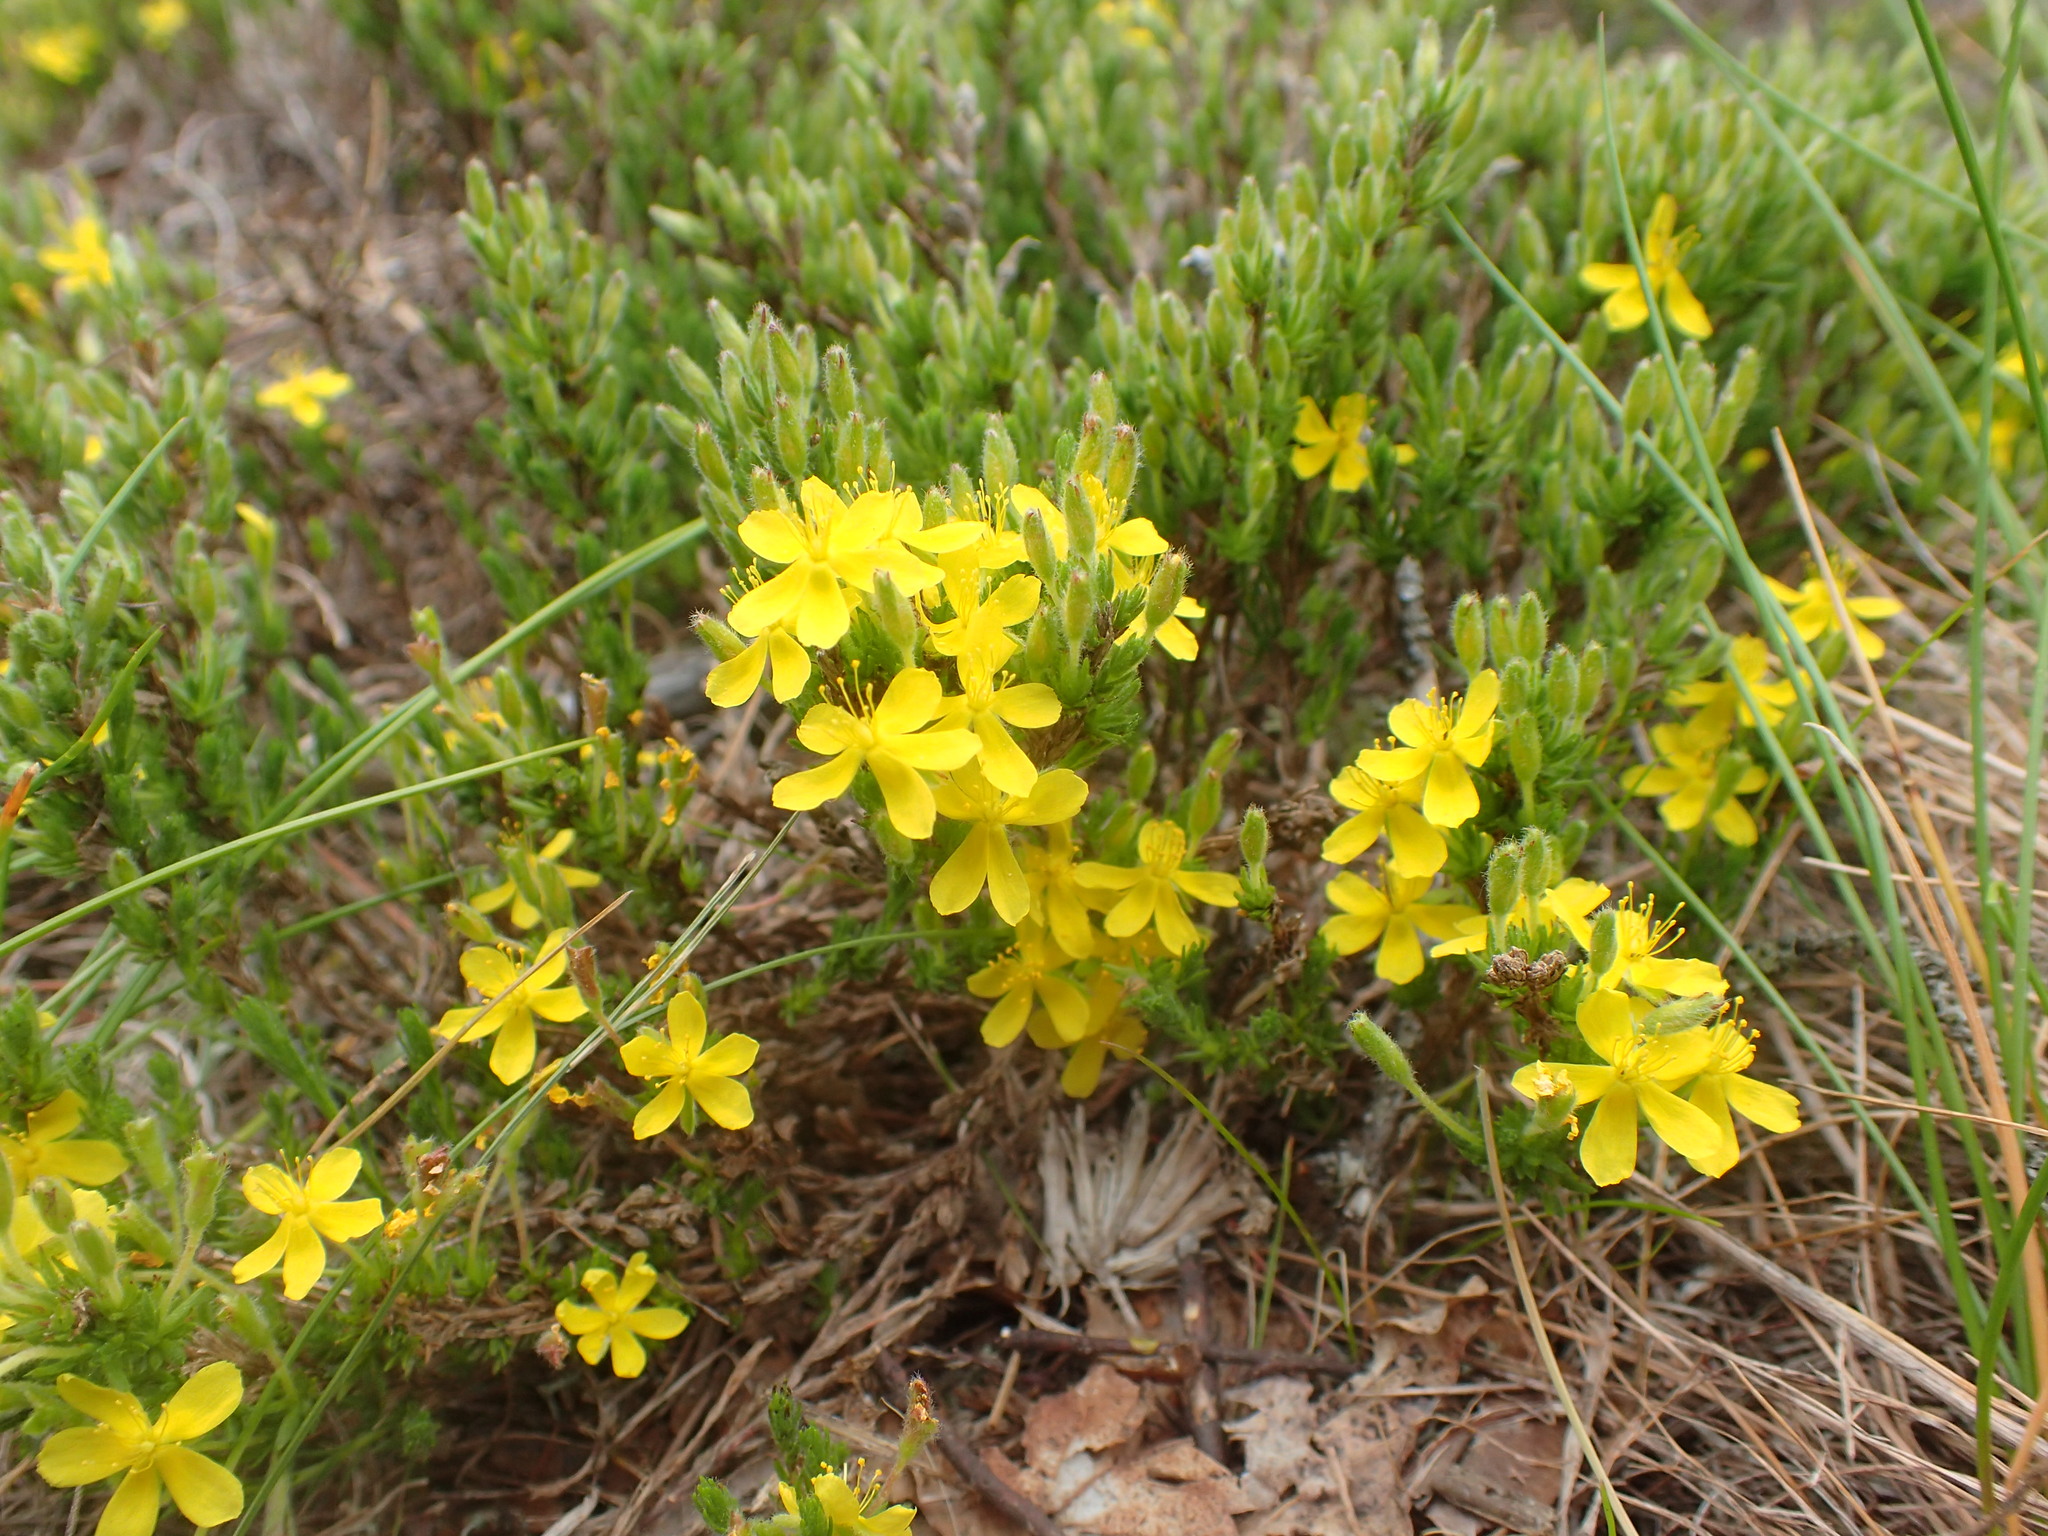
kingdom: Plantae
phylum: Tracheophyta
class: Magnoliopsida
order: Malvales
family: Cistaceae
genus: Hudsonia
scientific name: Hudsonia ericoides
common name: Golden-heather
